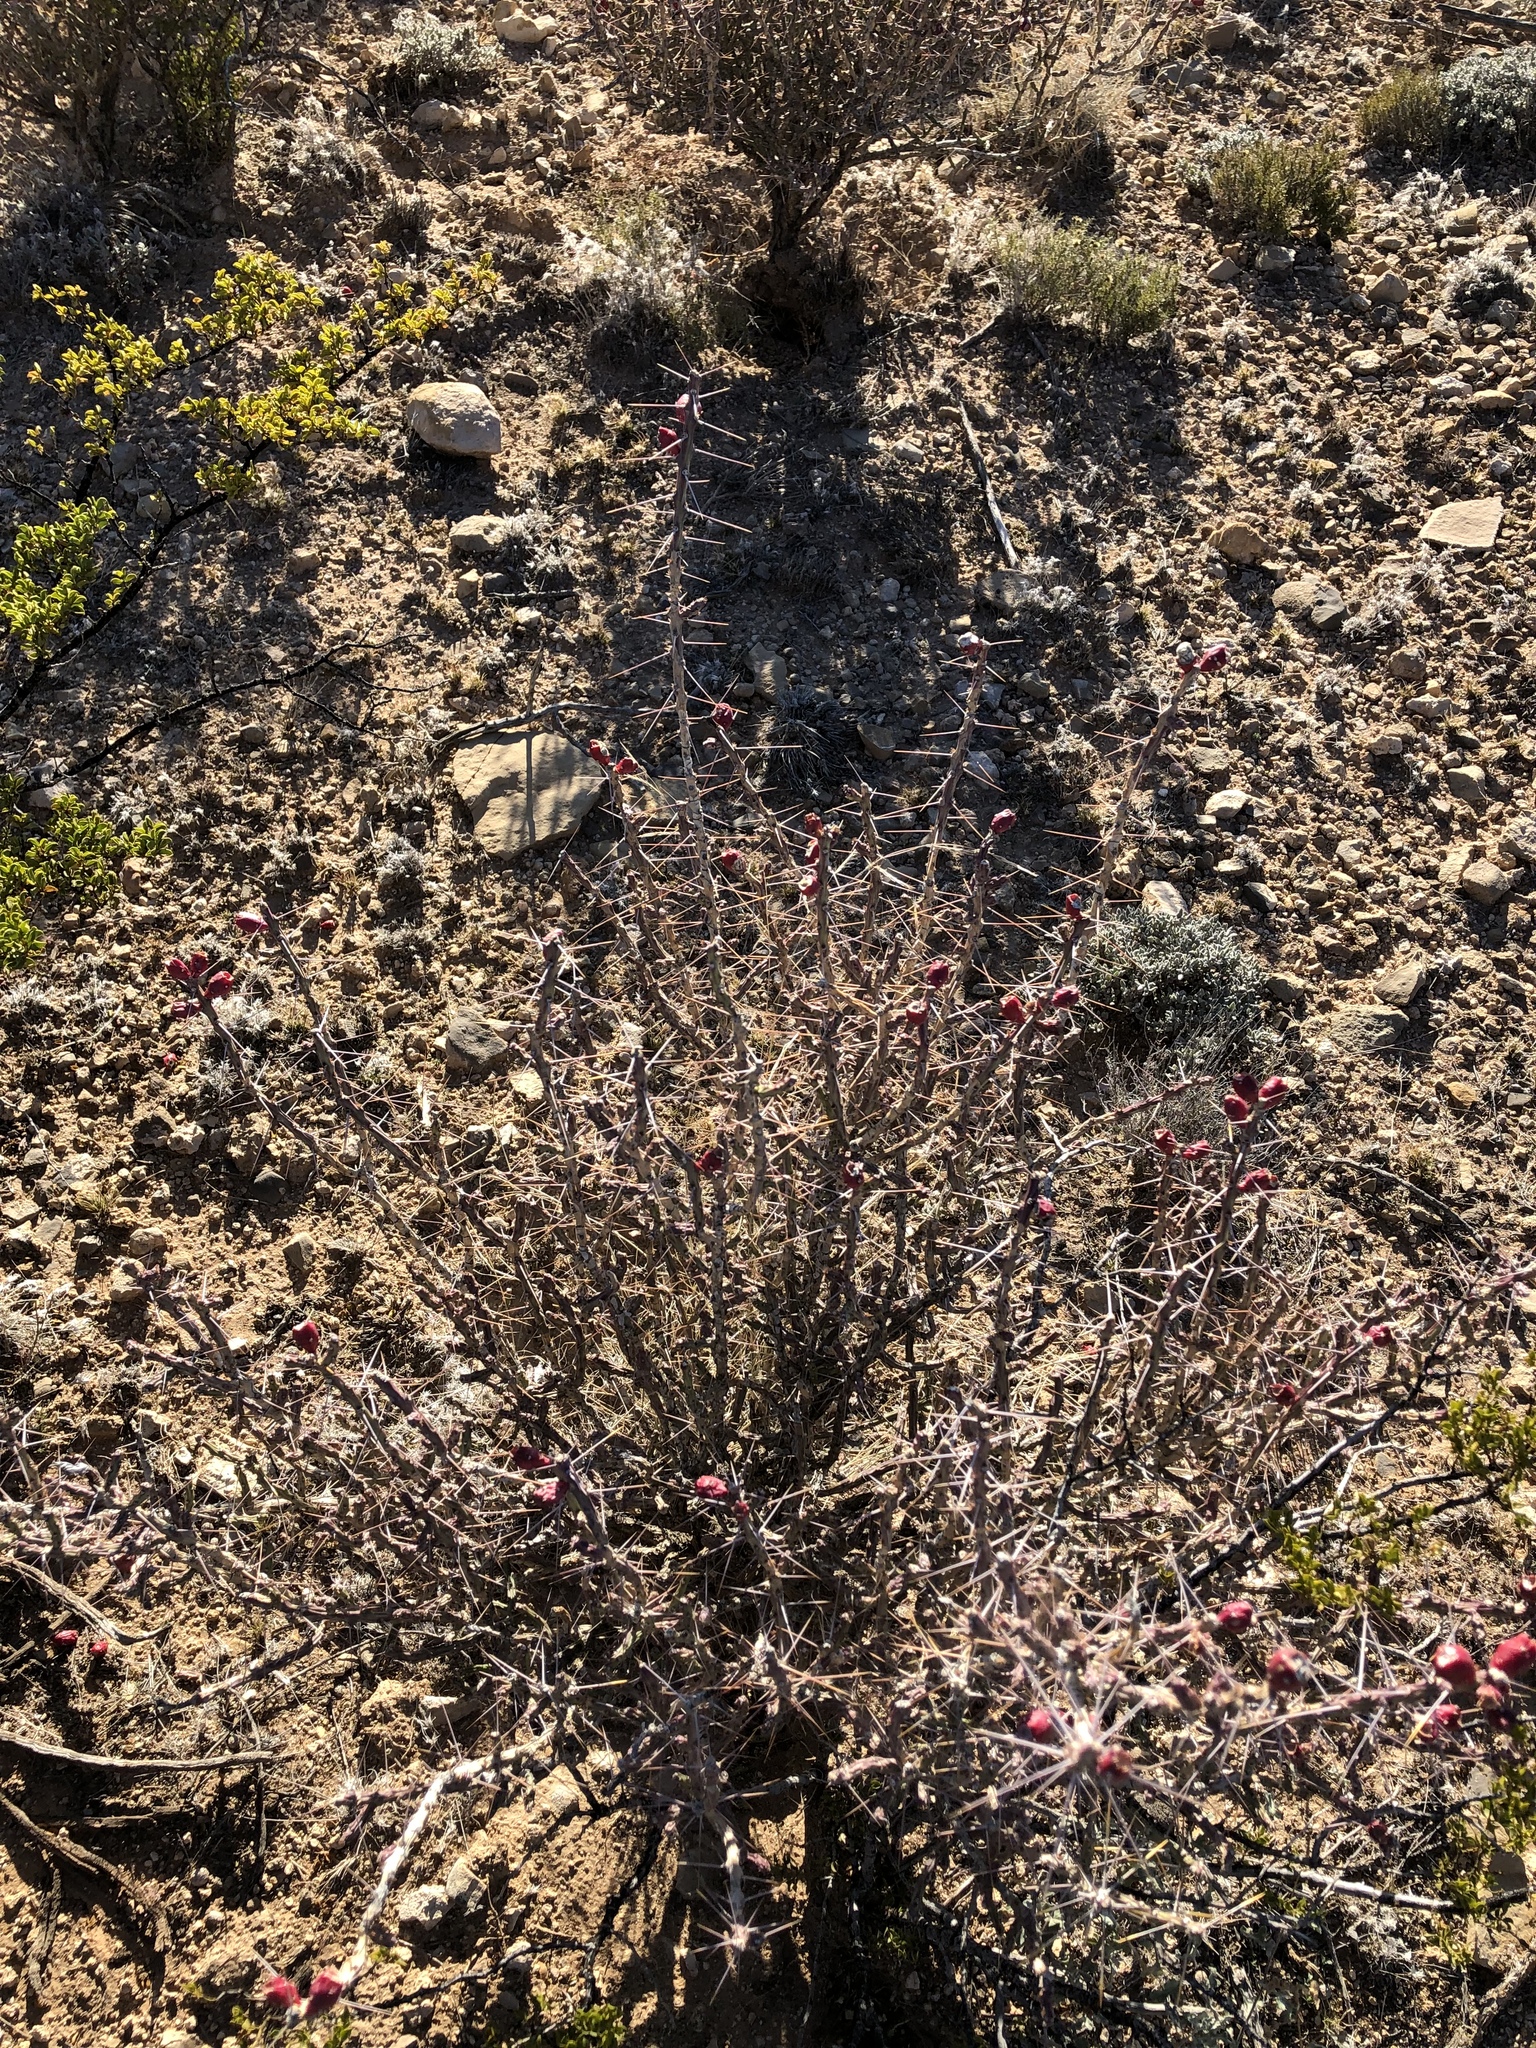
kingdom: Plantae
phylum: Tracheophyta
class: Magnoliopsida
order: Caryophyllales
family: Cactaceae
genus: Cylindropuntia
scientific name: Cylindropuntia leptocaulis
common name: Christmas cactus
